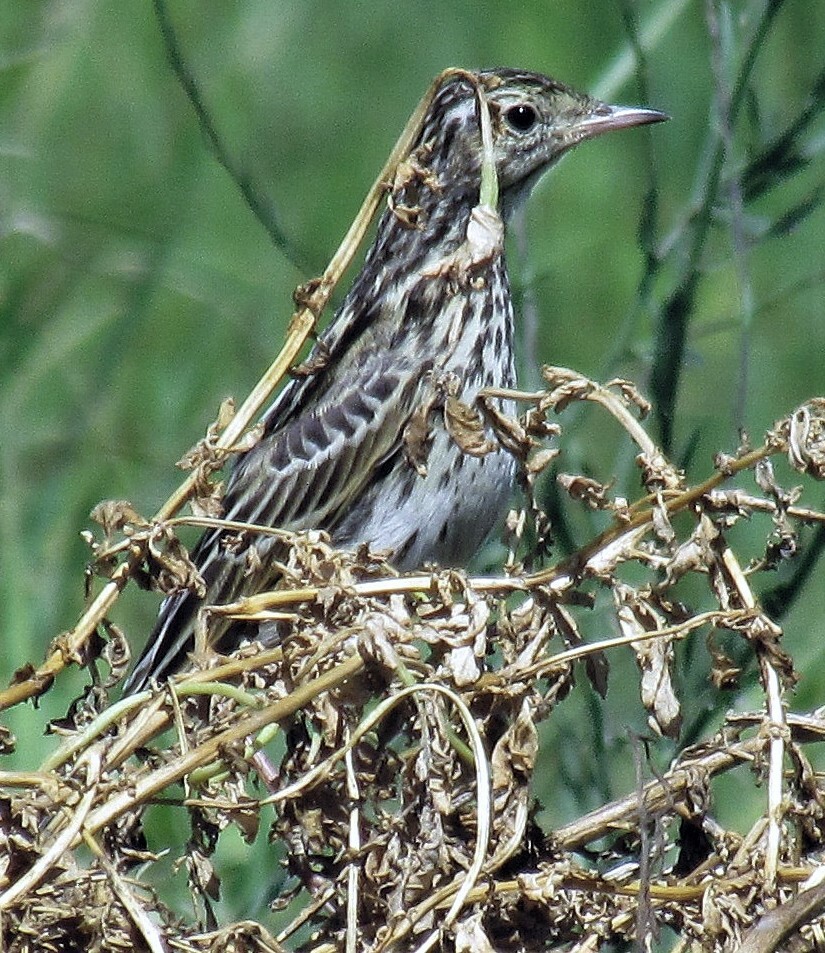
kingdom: Animalia
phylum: Chordata
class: Aves
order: Passeriformes
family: Motacillidae
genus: Anthus
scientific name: Anthus correndera
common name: Correndera pipit
